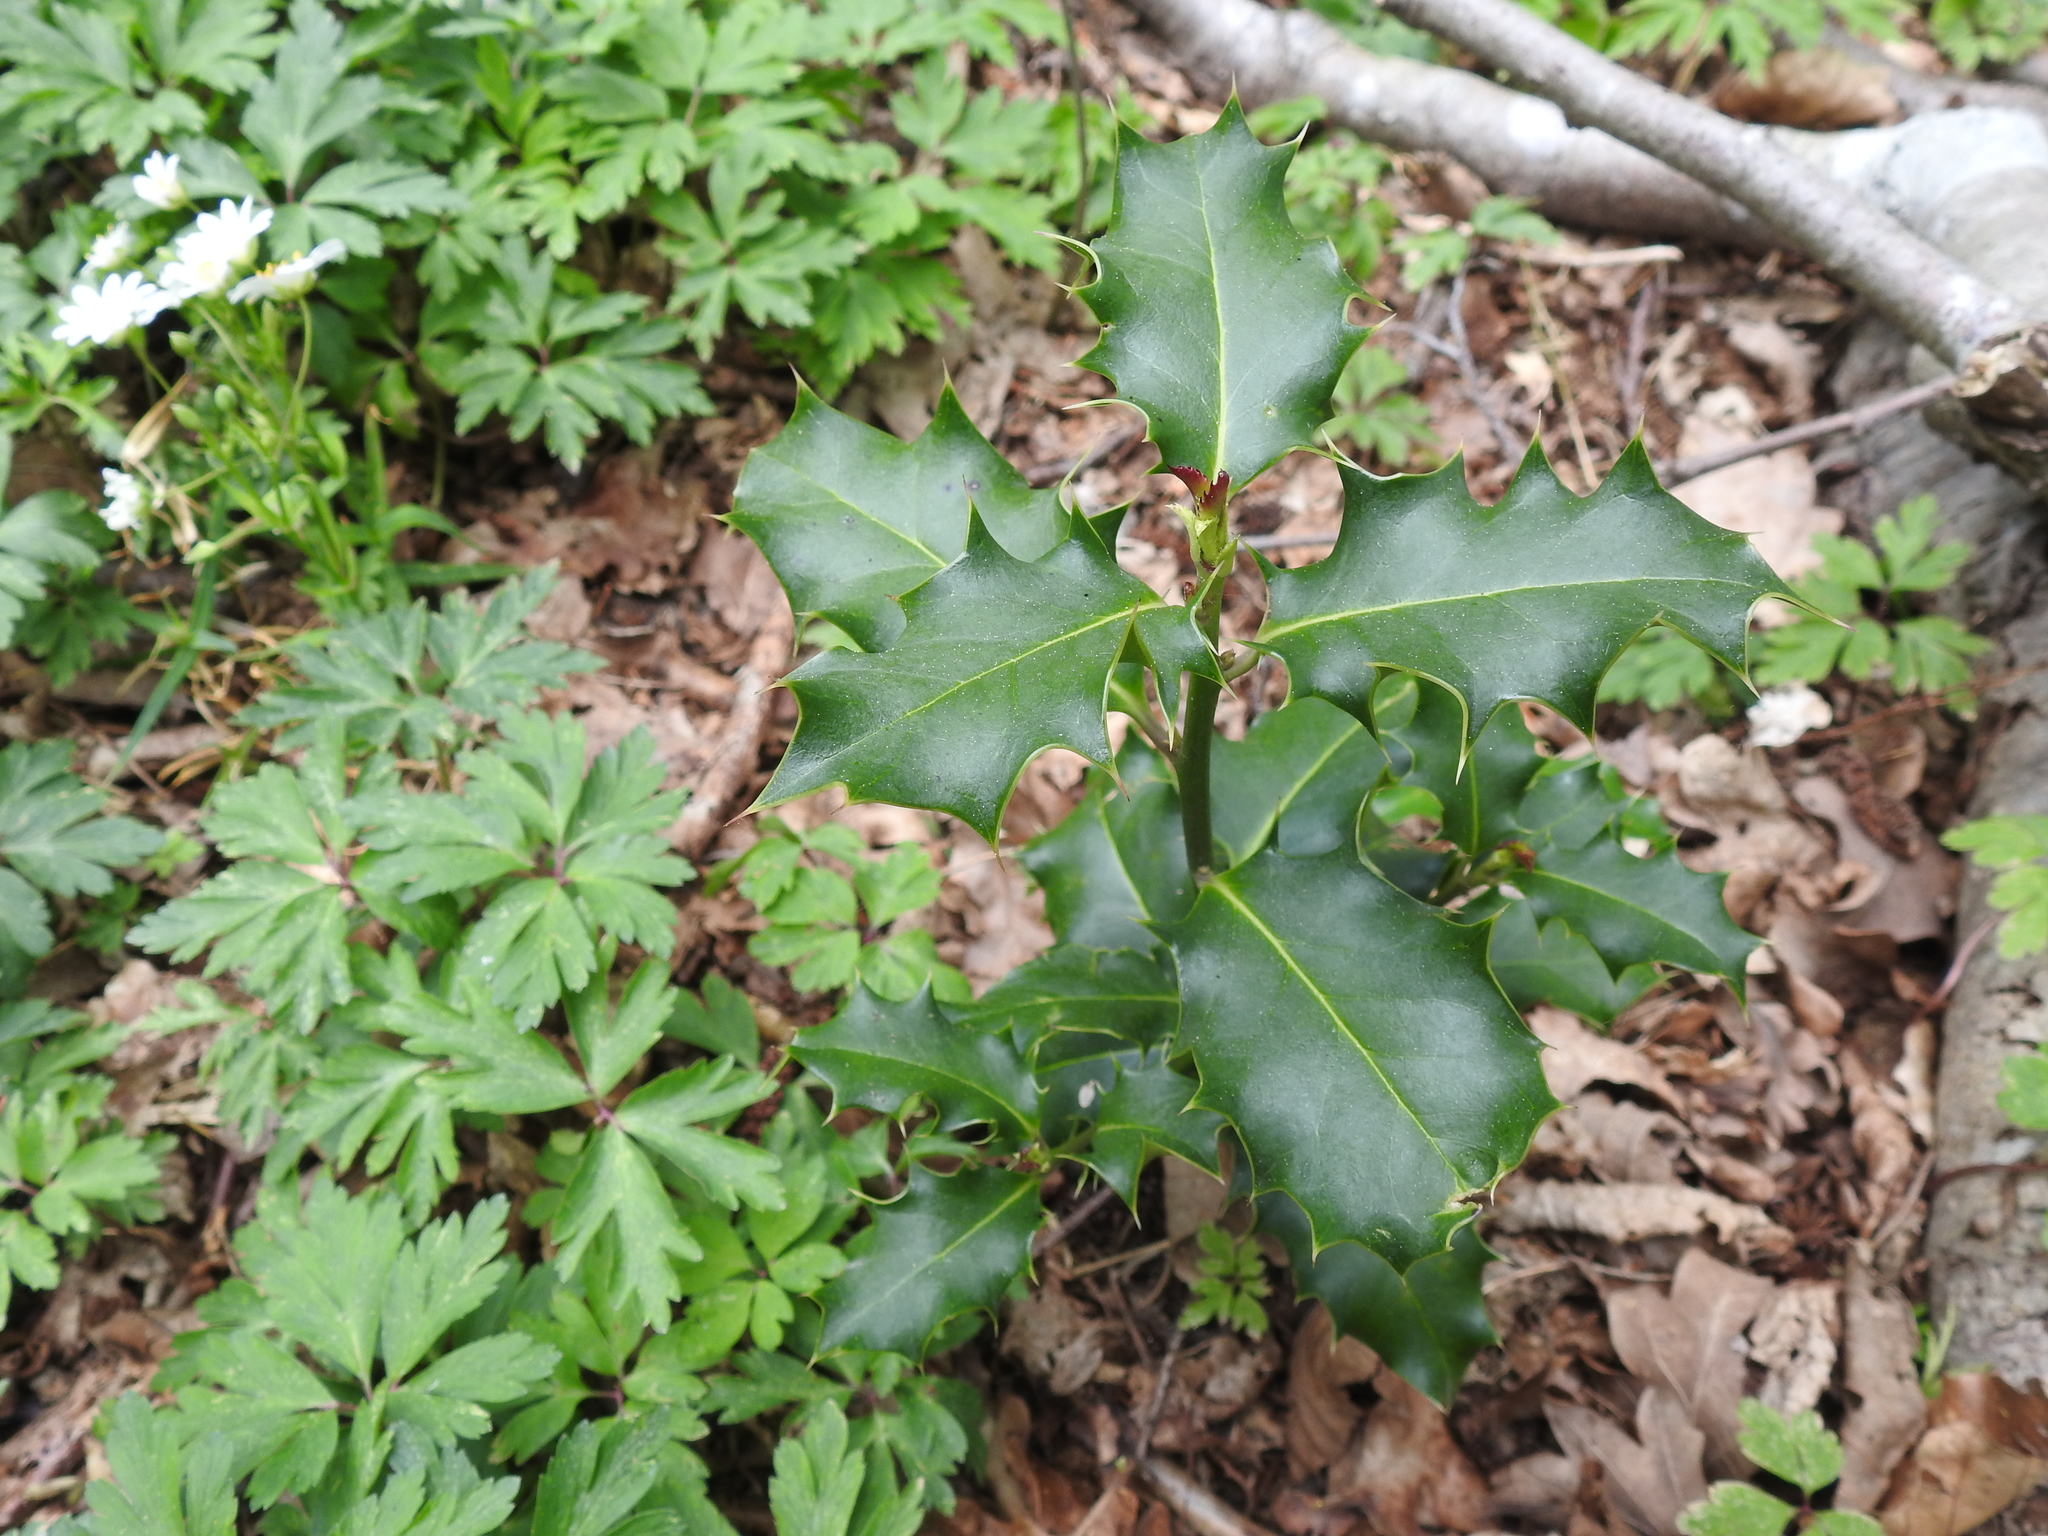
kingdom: Plantae
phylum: Tracheophyta
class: Magnoliopsida
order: Aquifoliales
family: Aquifoliaceae
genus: Ilex
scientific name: Ilex aquifolium
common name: English holly
